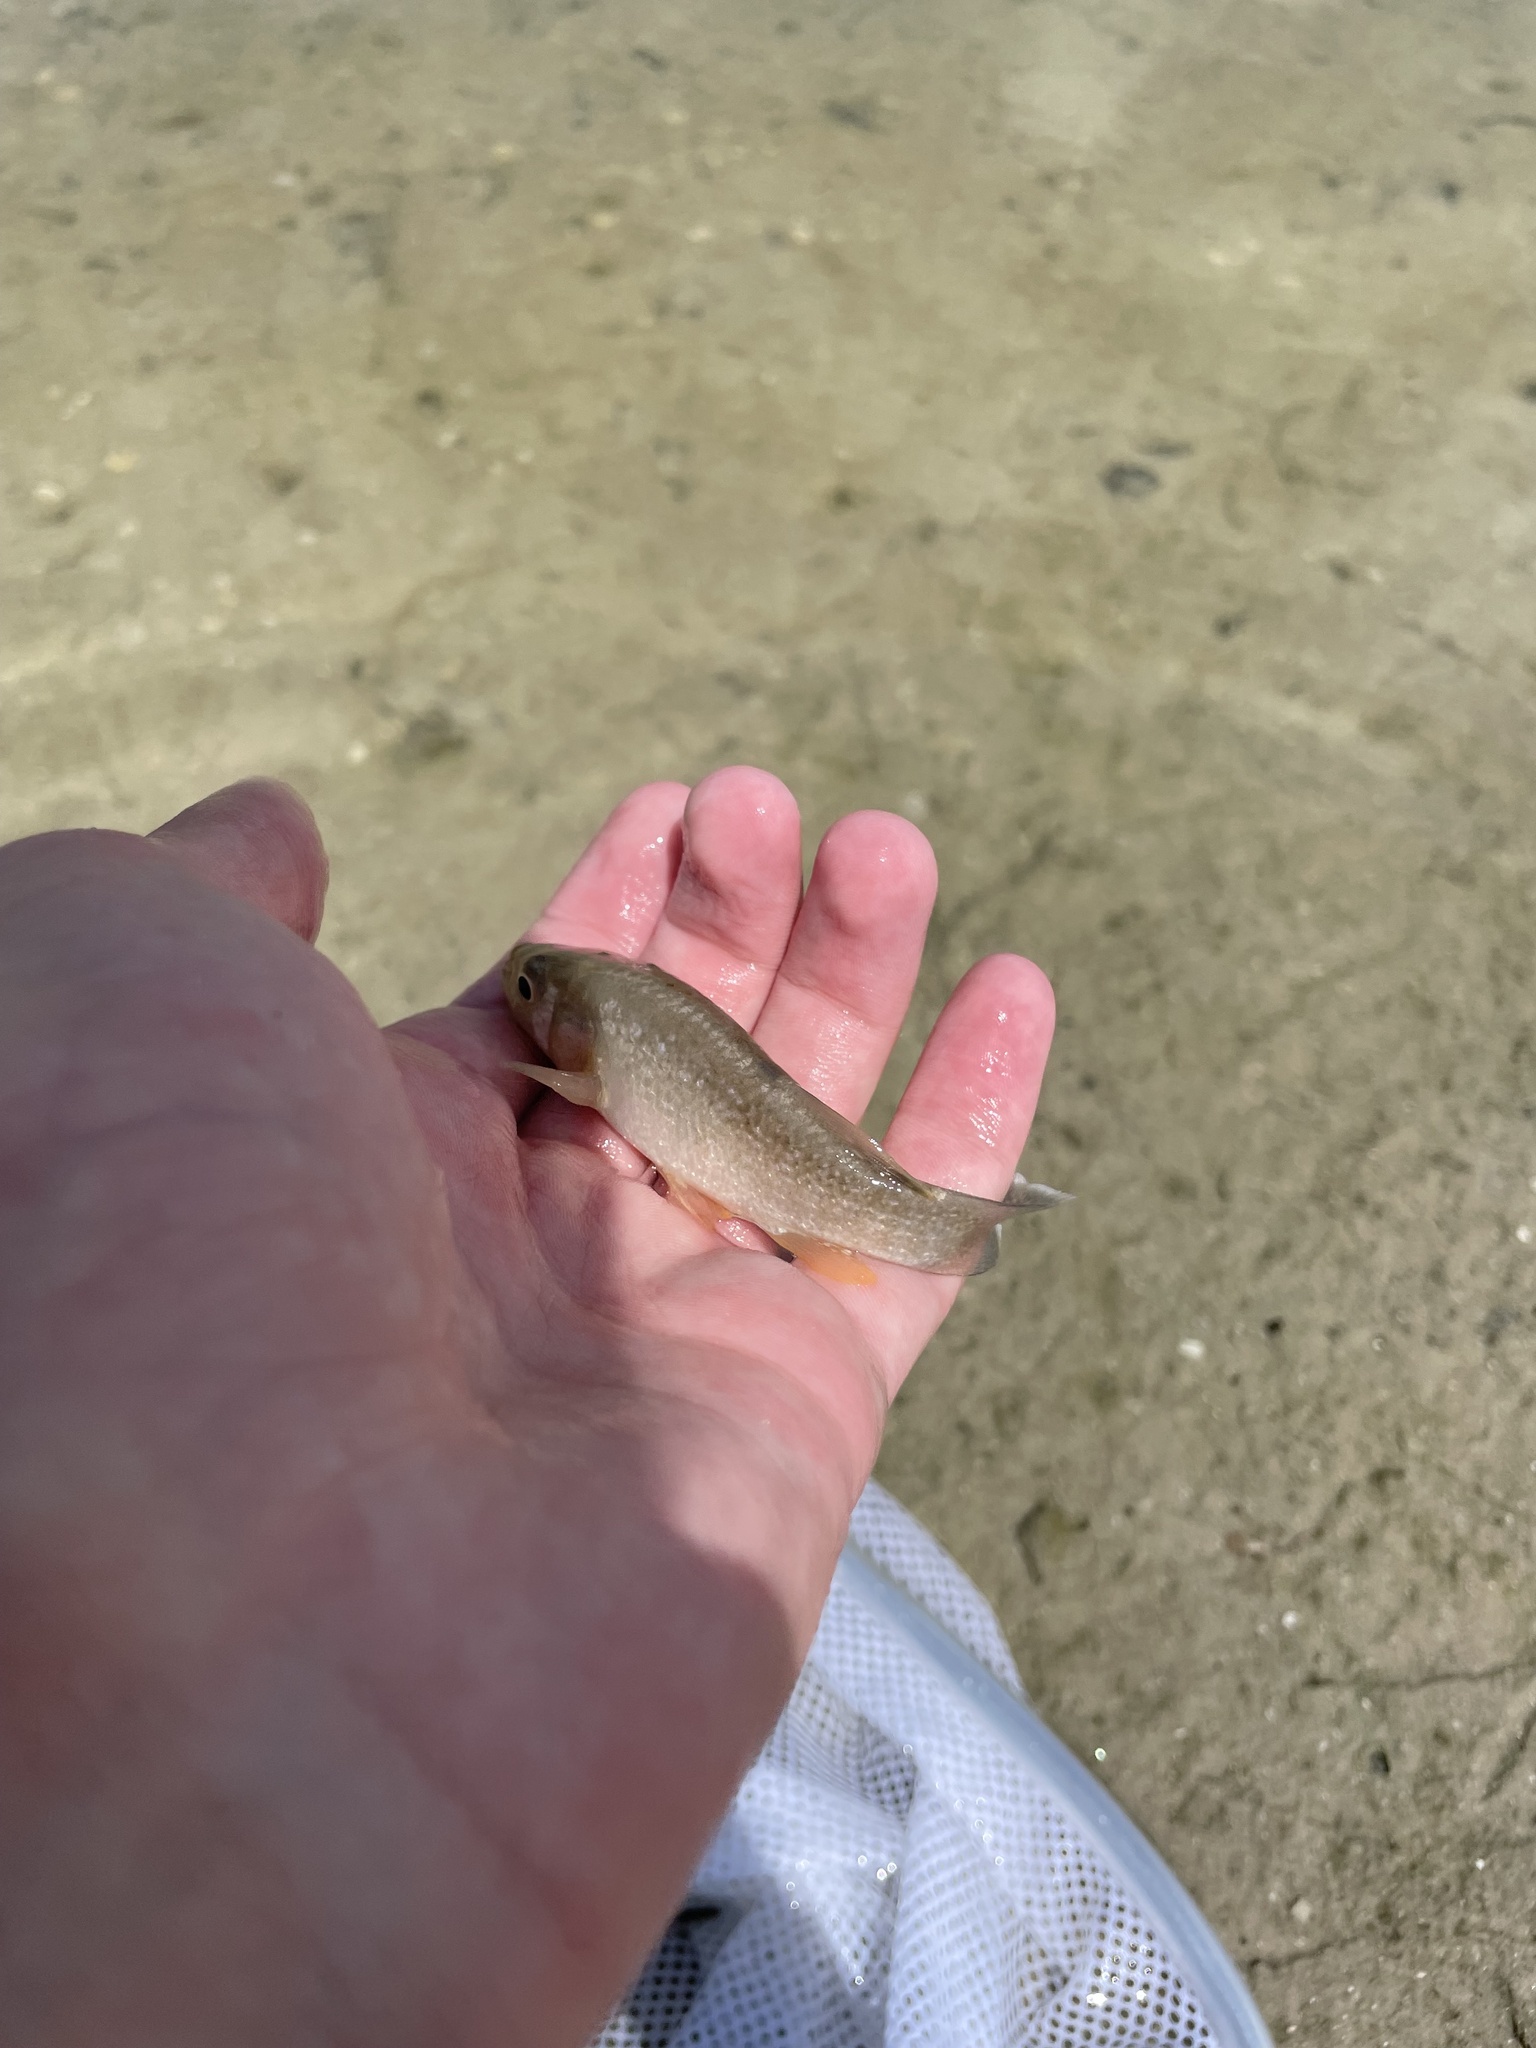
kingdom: Animalia
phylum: Chordata
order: Cyprinodontiformes
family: Fundulidae
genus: Fundulus
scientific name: Fundulus grandis
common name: Gulf killifish
